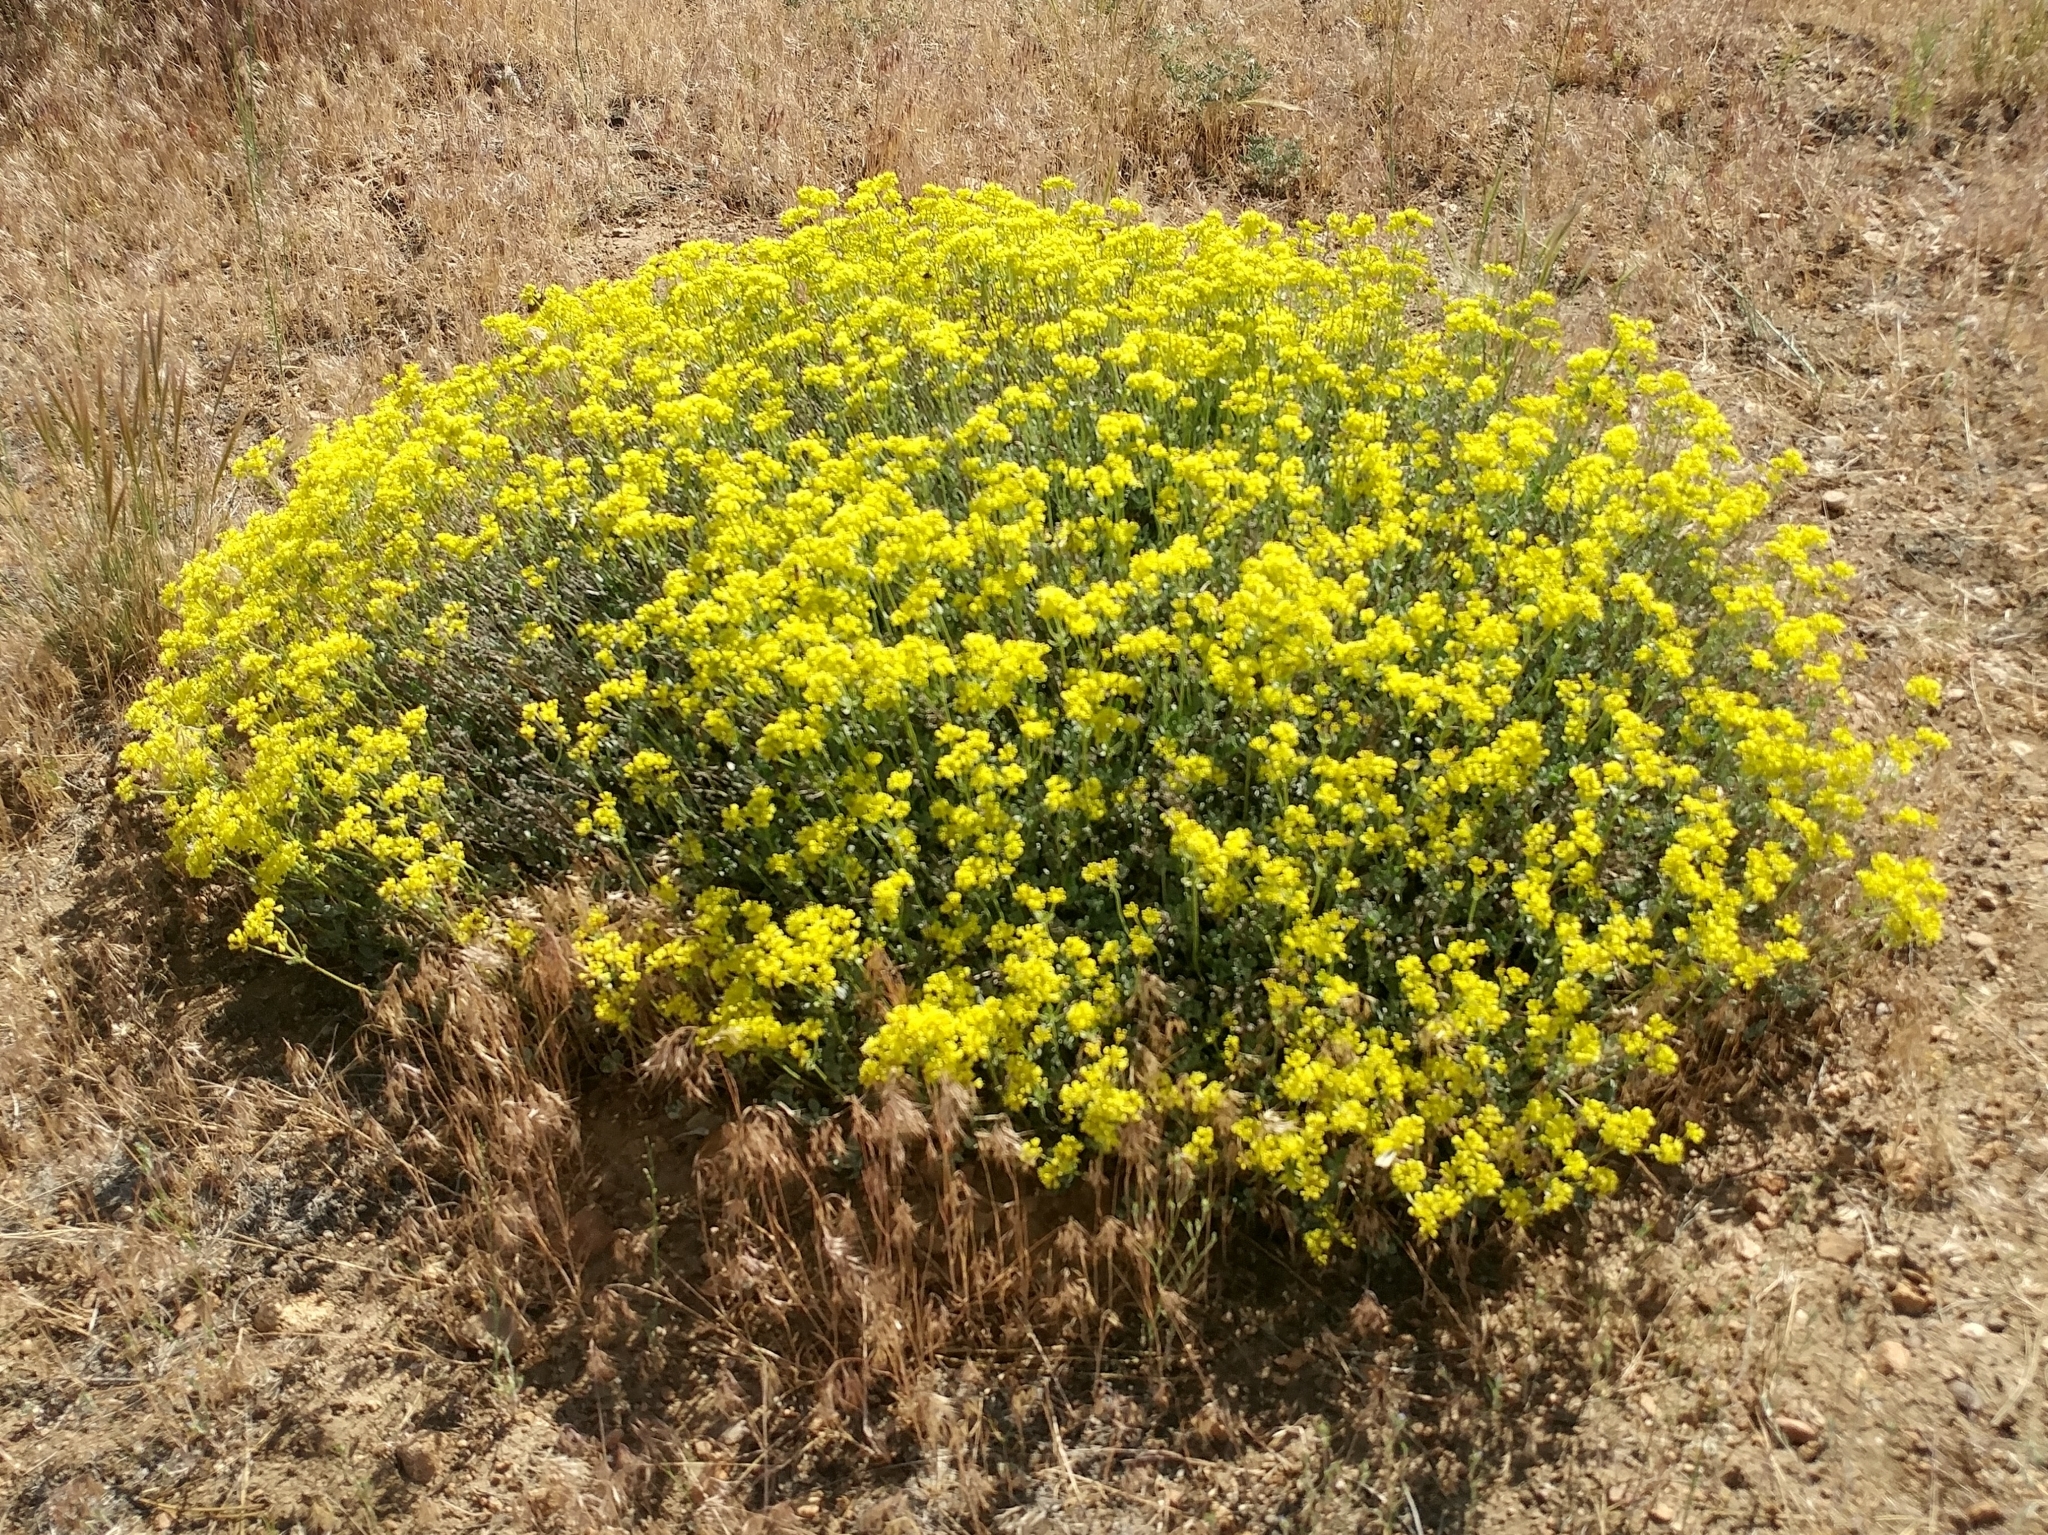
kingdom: Plantae
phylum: Tracheophyta
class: Magnoliopsida
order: Caryophyllales
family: Polygonaceae
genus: Eriogonum
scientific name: Eriogonum umbellatum
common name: Sulfur-buckwheat
